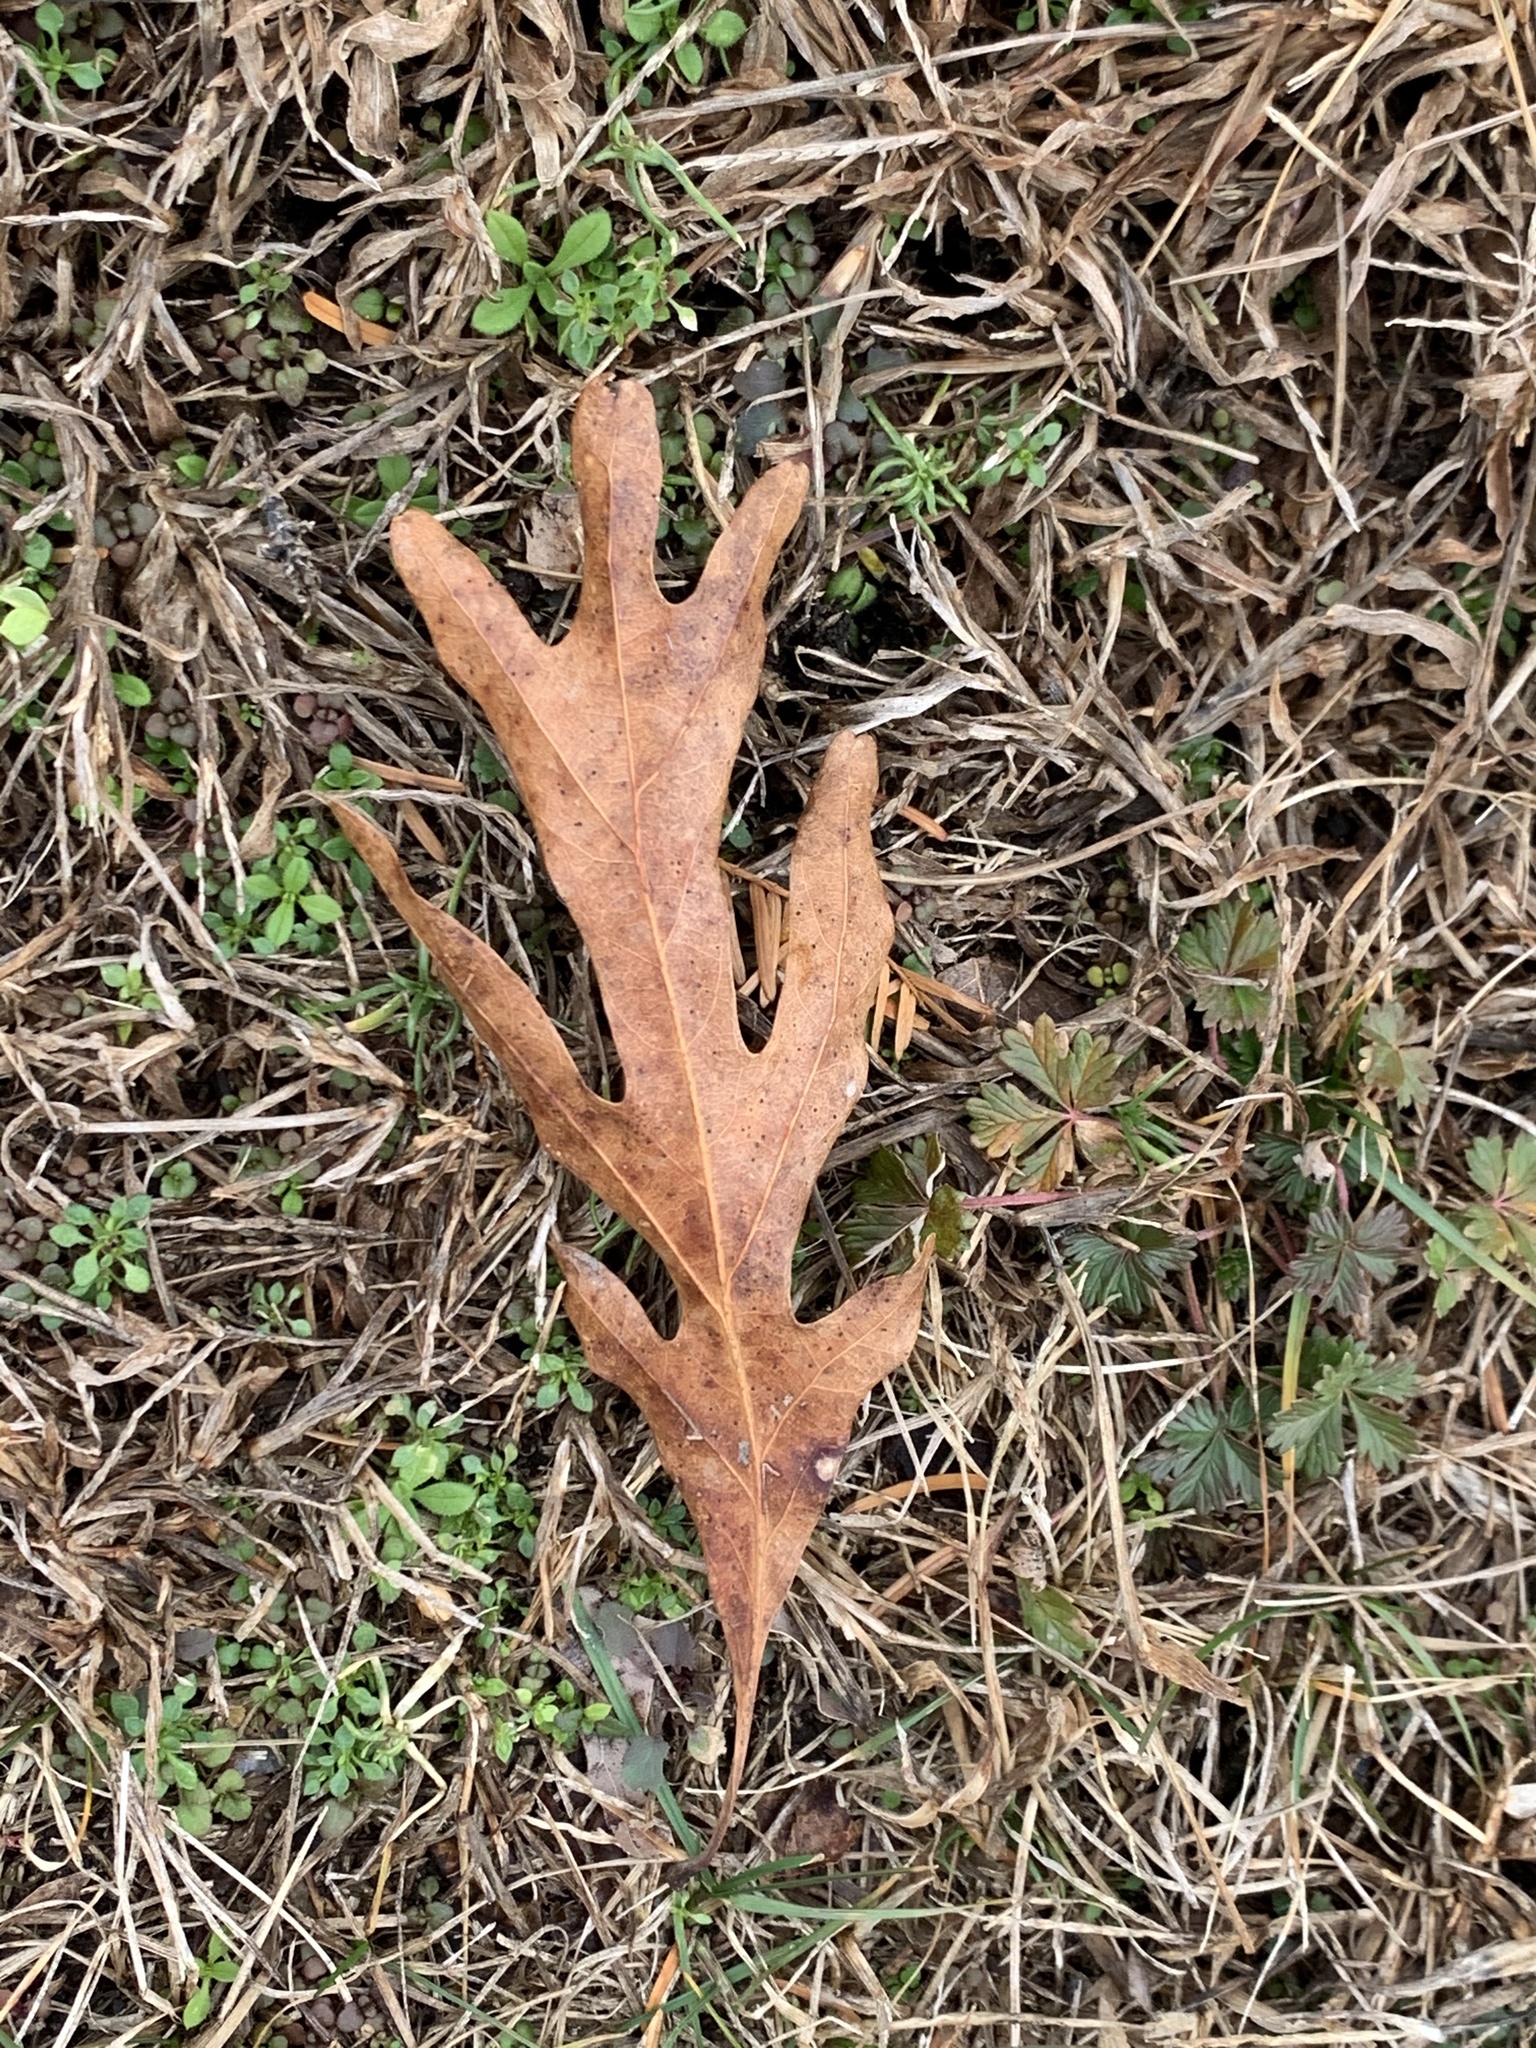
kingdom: Plantae
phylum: Tracheophyta
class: Magnoliopsida
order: Fagales
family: Fagaceae
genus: Quercus
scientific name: Quercus alba
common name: White oak
